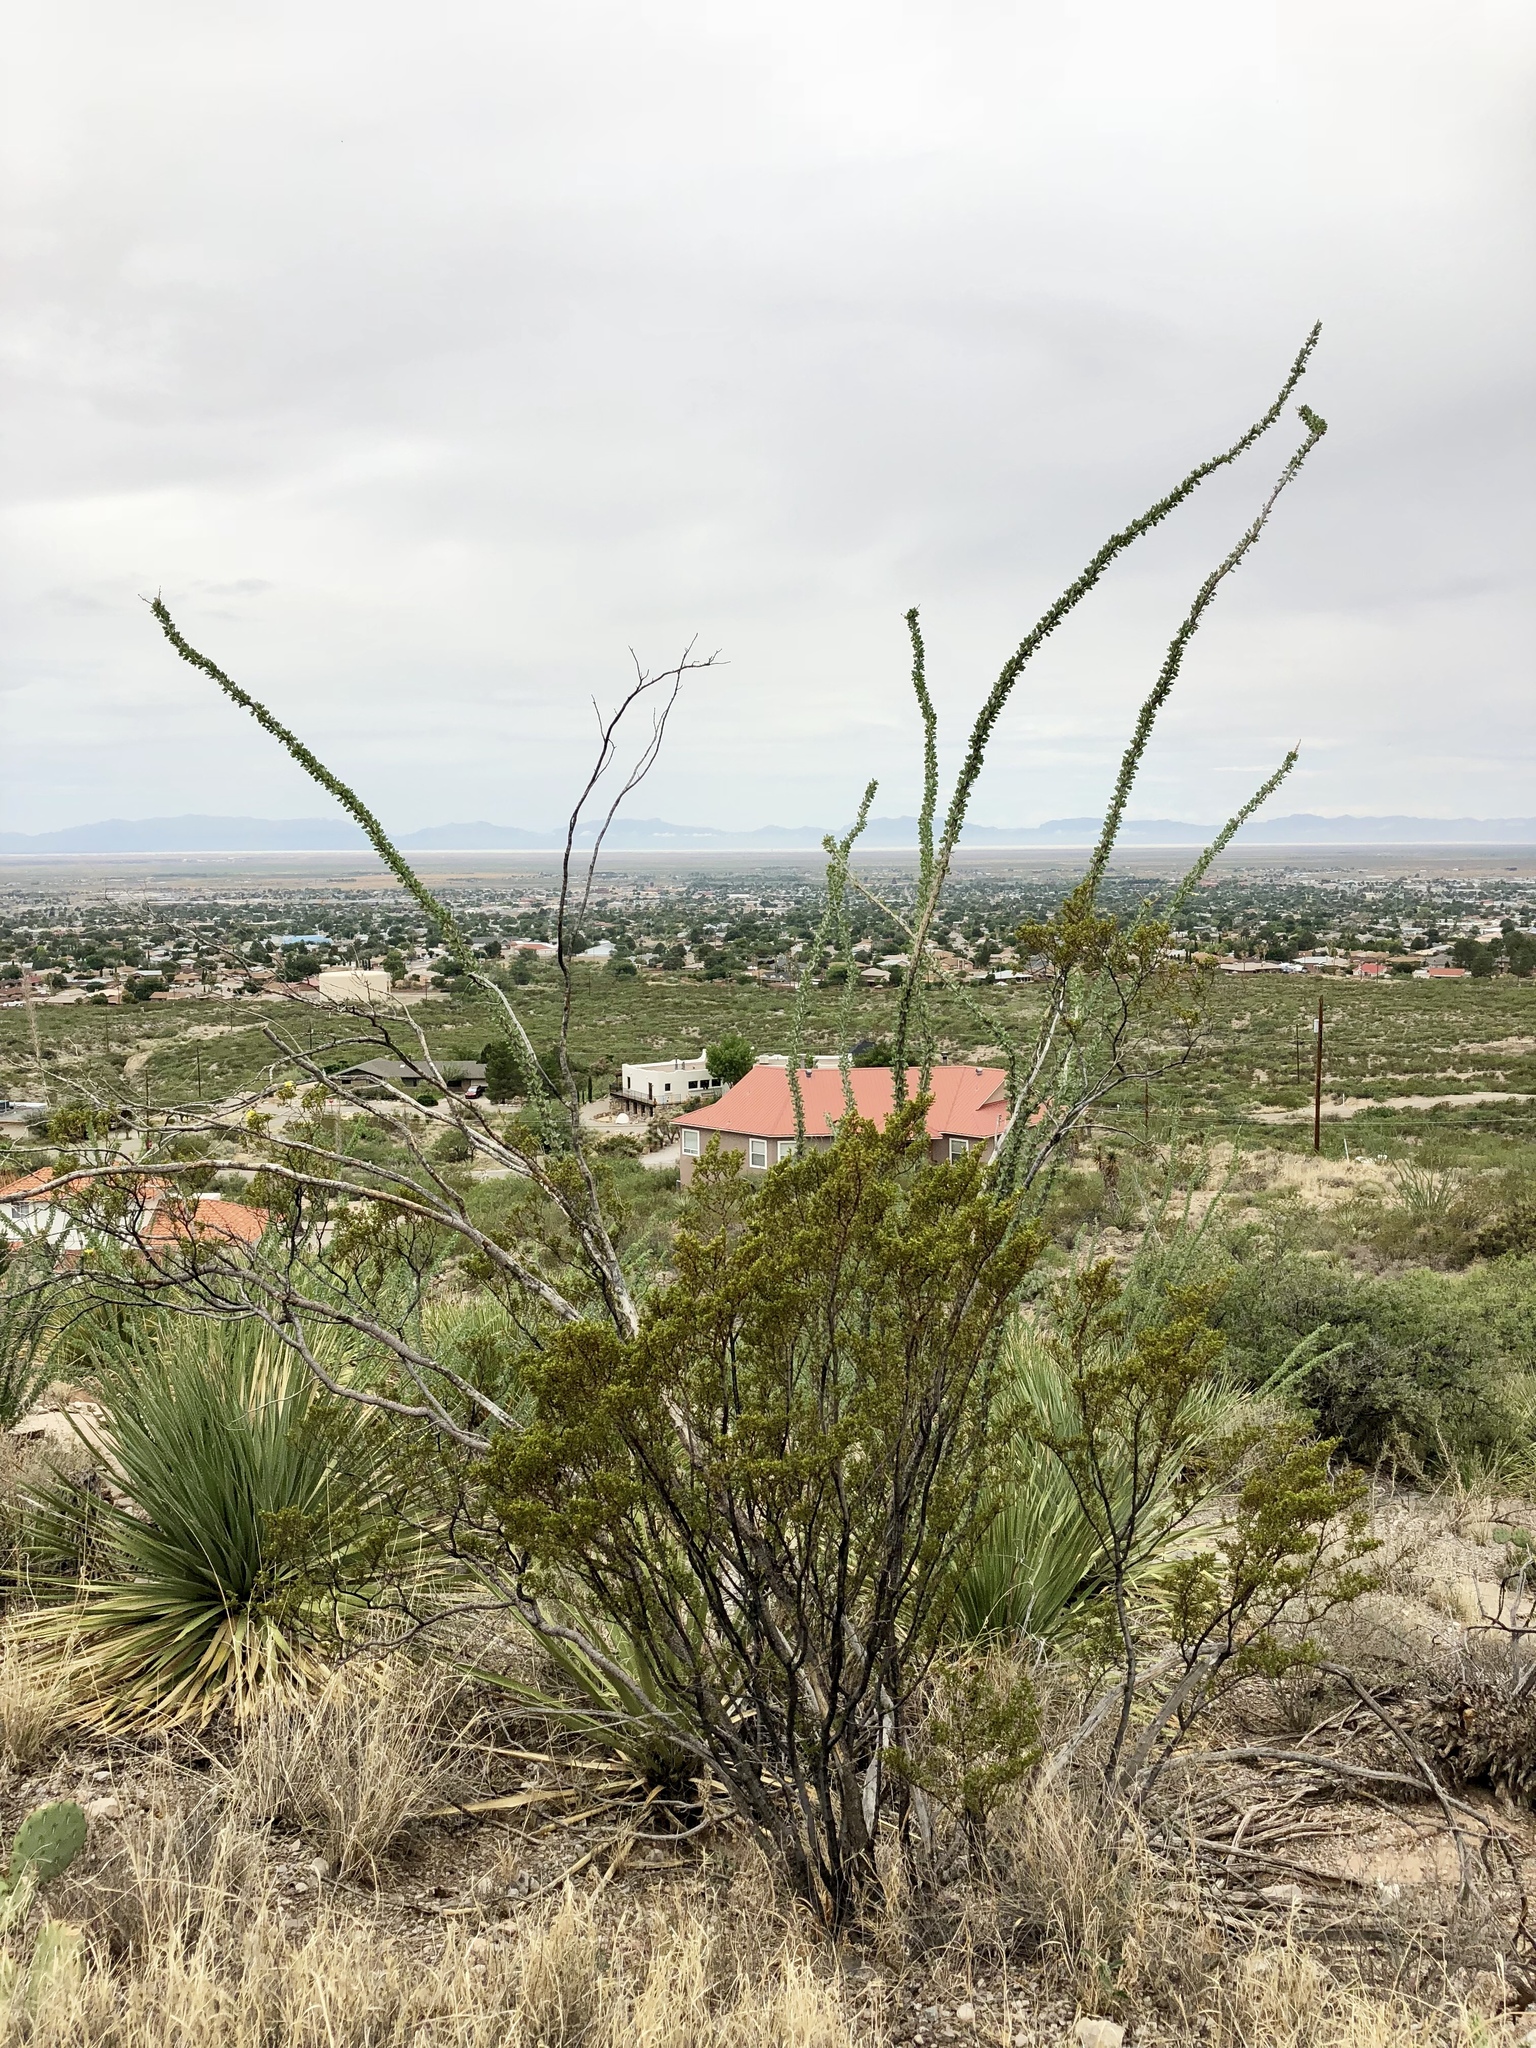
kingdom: Plantae
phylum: Tracheophyta
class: Magnoliopsida
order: Ericales
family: Fouquieriaceae
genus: Fouquieria
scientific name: Fouquieria splendens
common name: Vine-cactus
